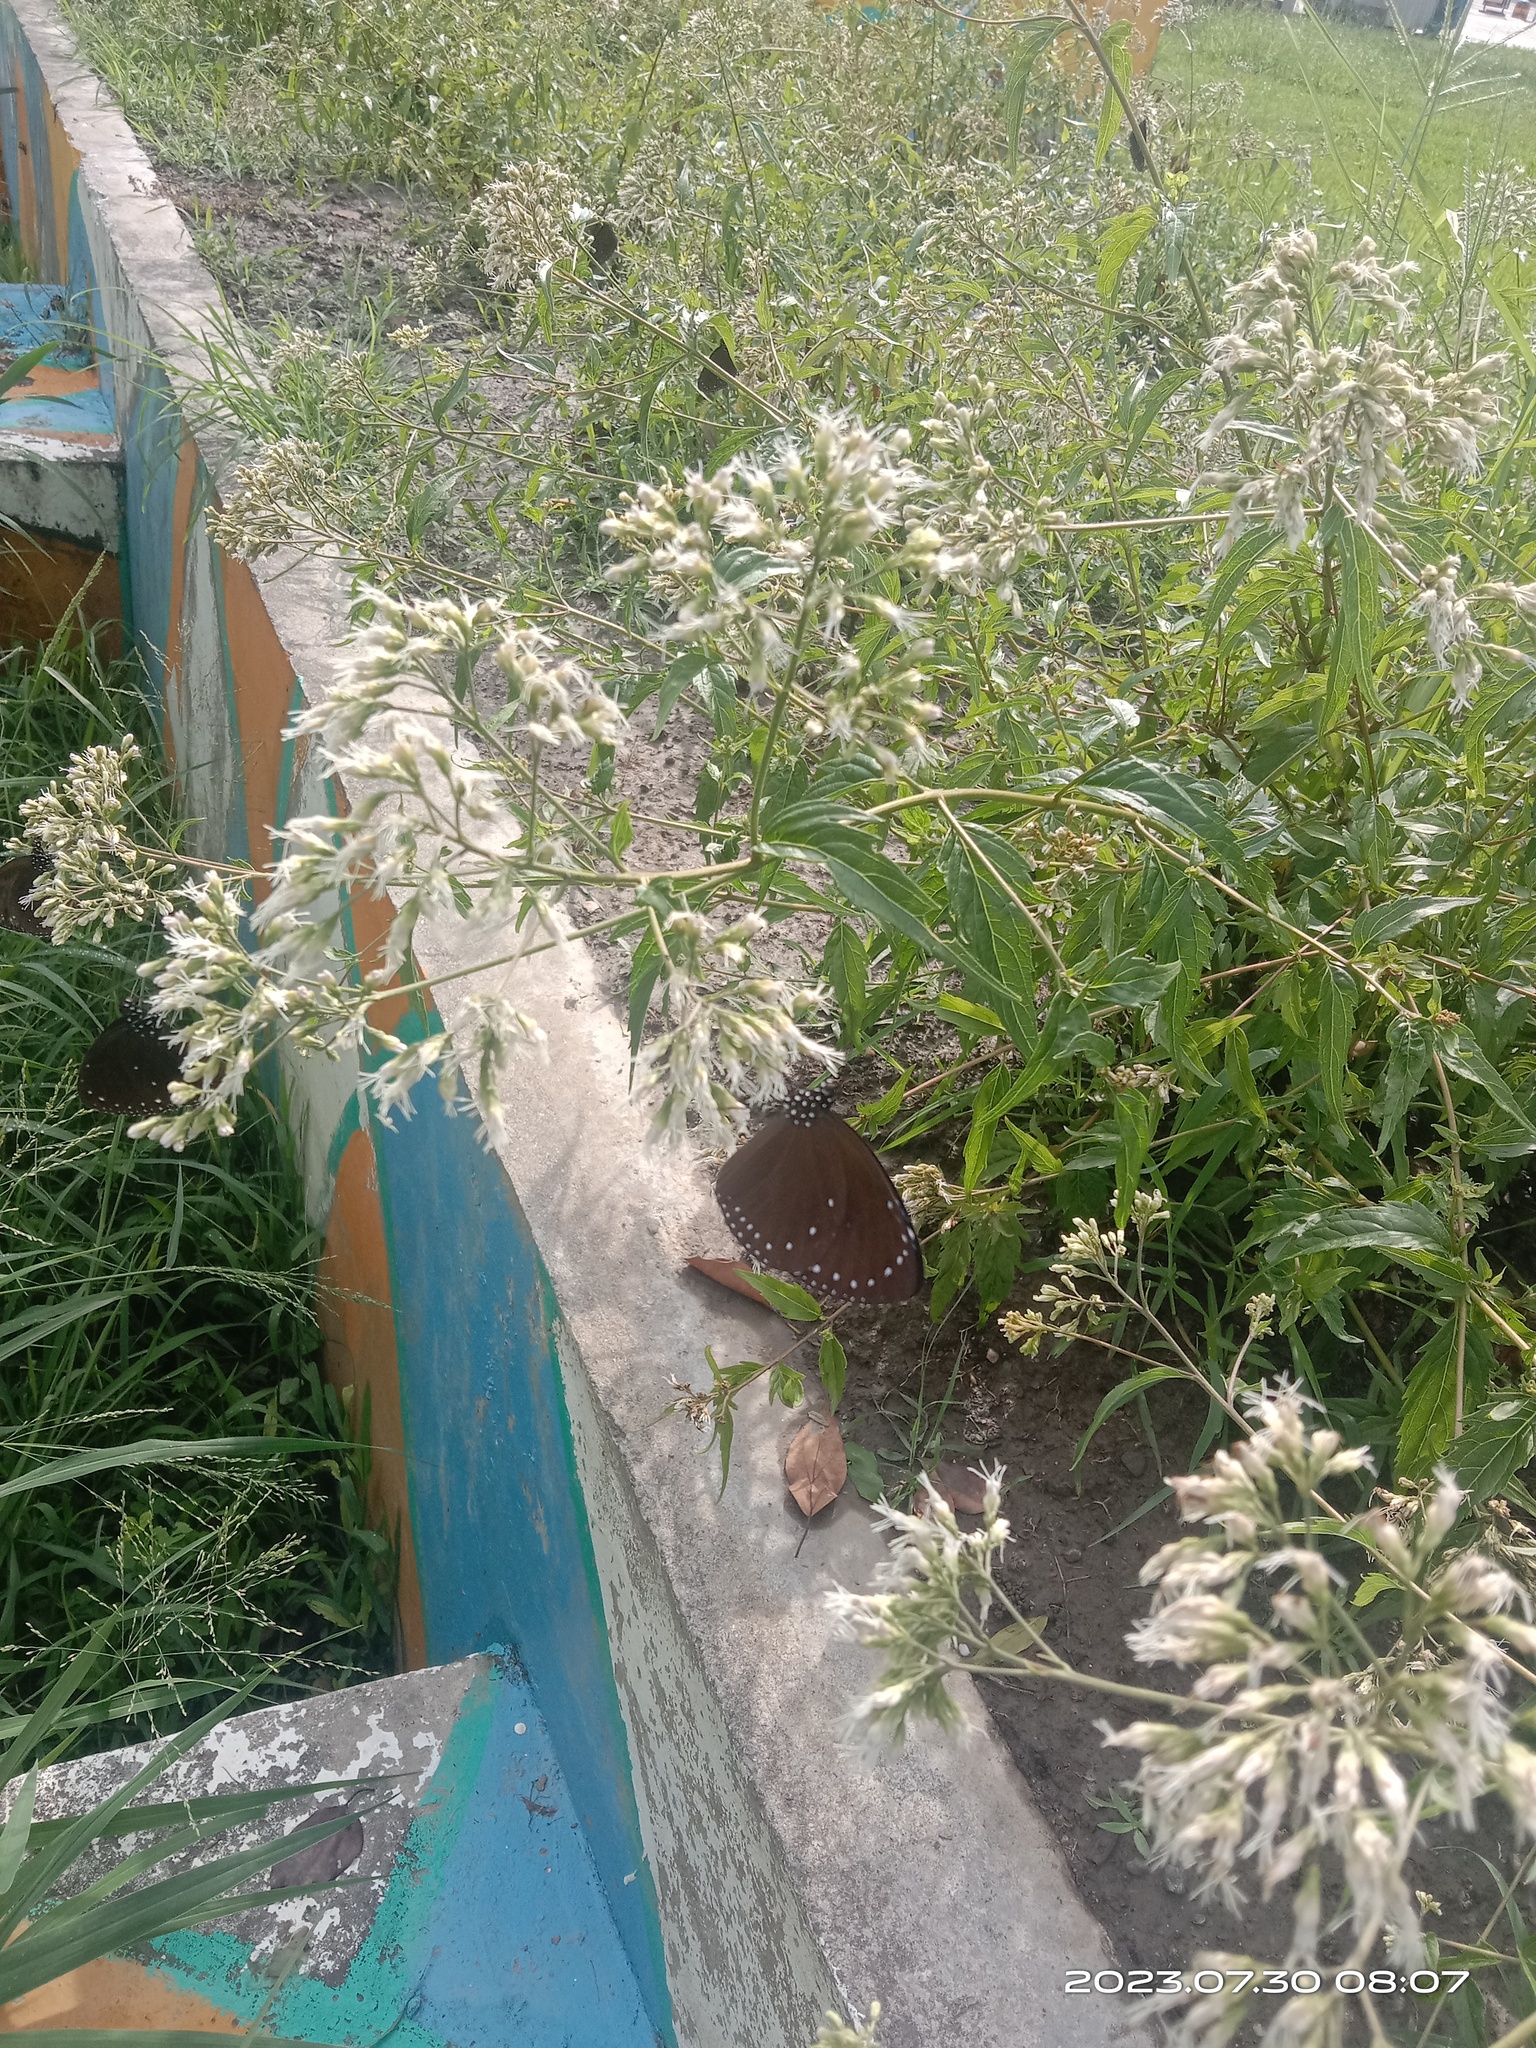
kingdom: Animalia
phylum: Arthropoda
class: Insecta
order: Lepidoptera
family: Nymphalidae
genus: Euploea
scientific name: Euploea tulliolus
